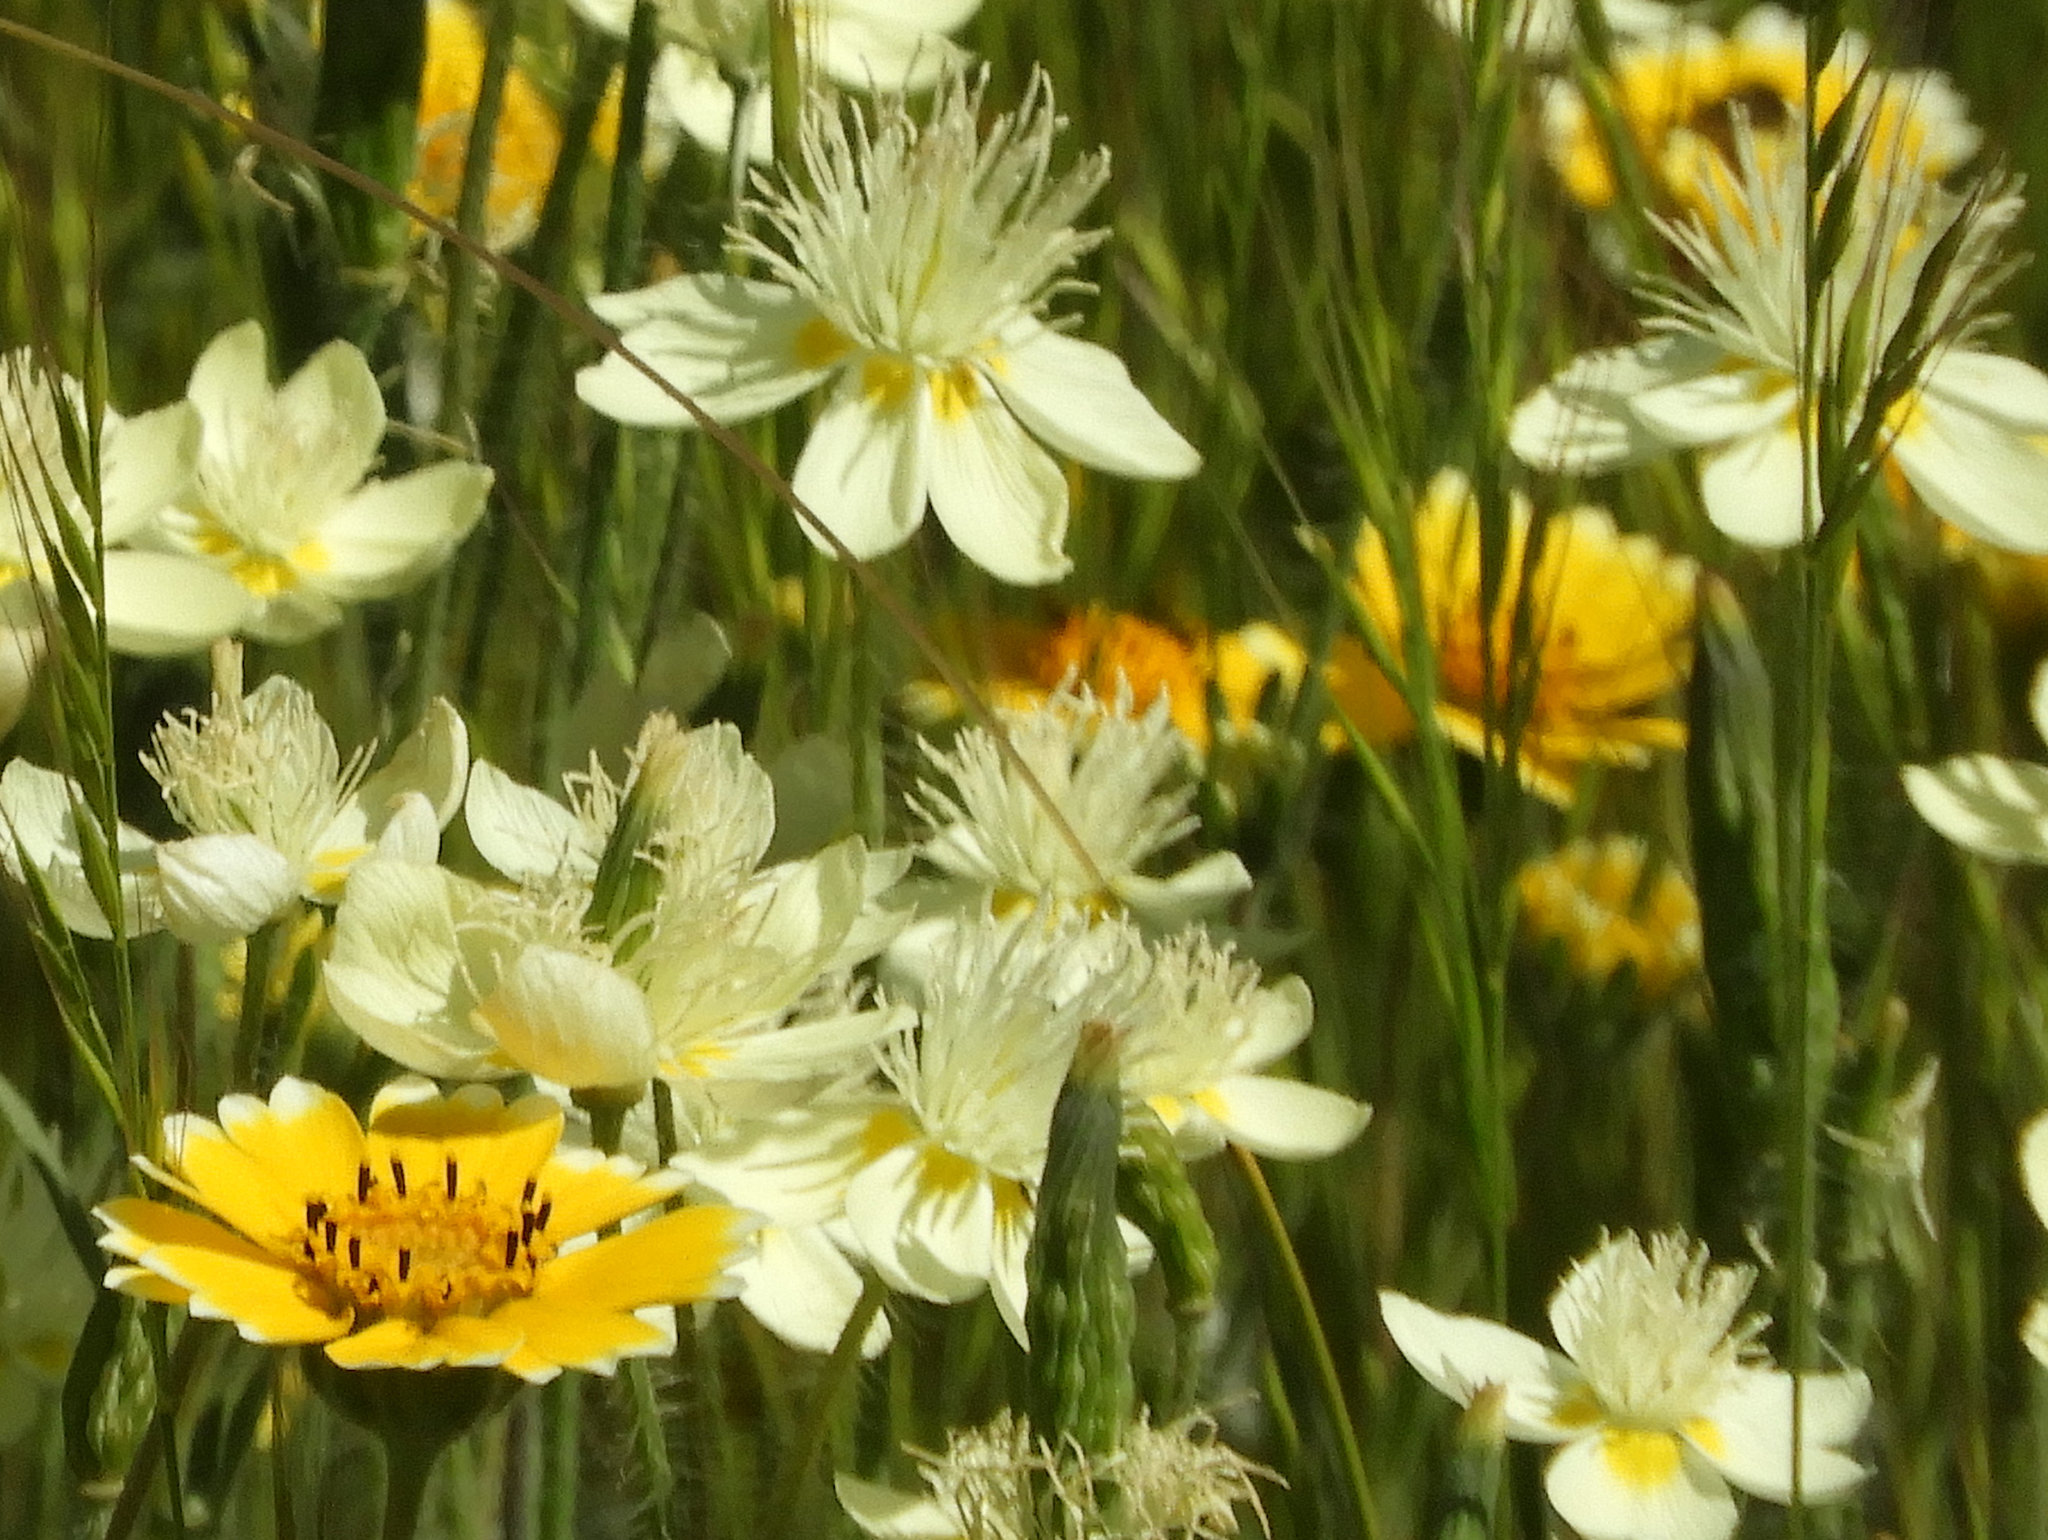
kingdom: Plantae
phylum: Tracheophyta
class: Magnoliopsida
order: Ranunculales
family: Papaveraceae
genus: Platystemon
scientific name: Platystemon californicus
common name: Cream-cups
